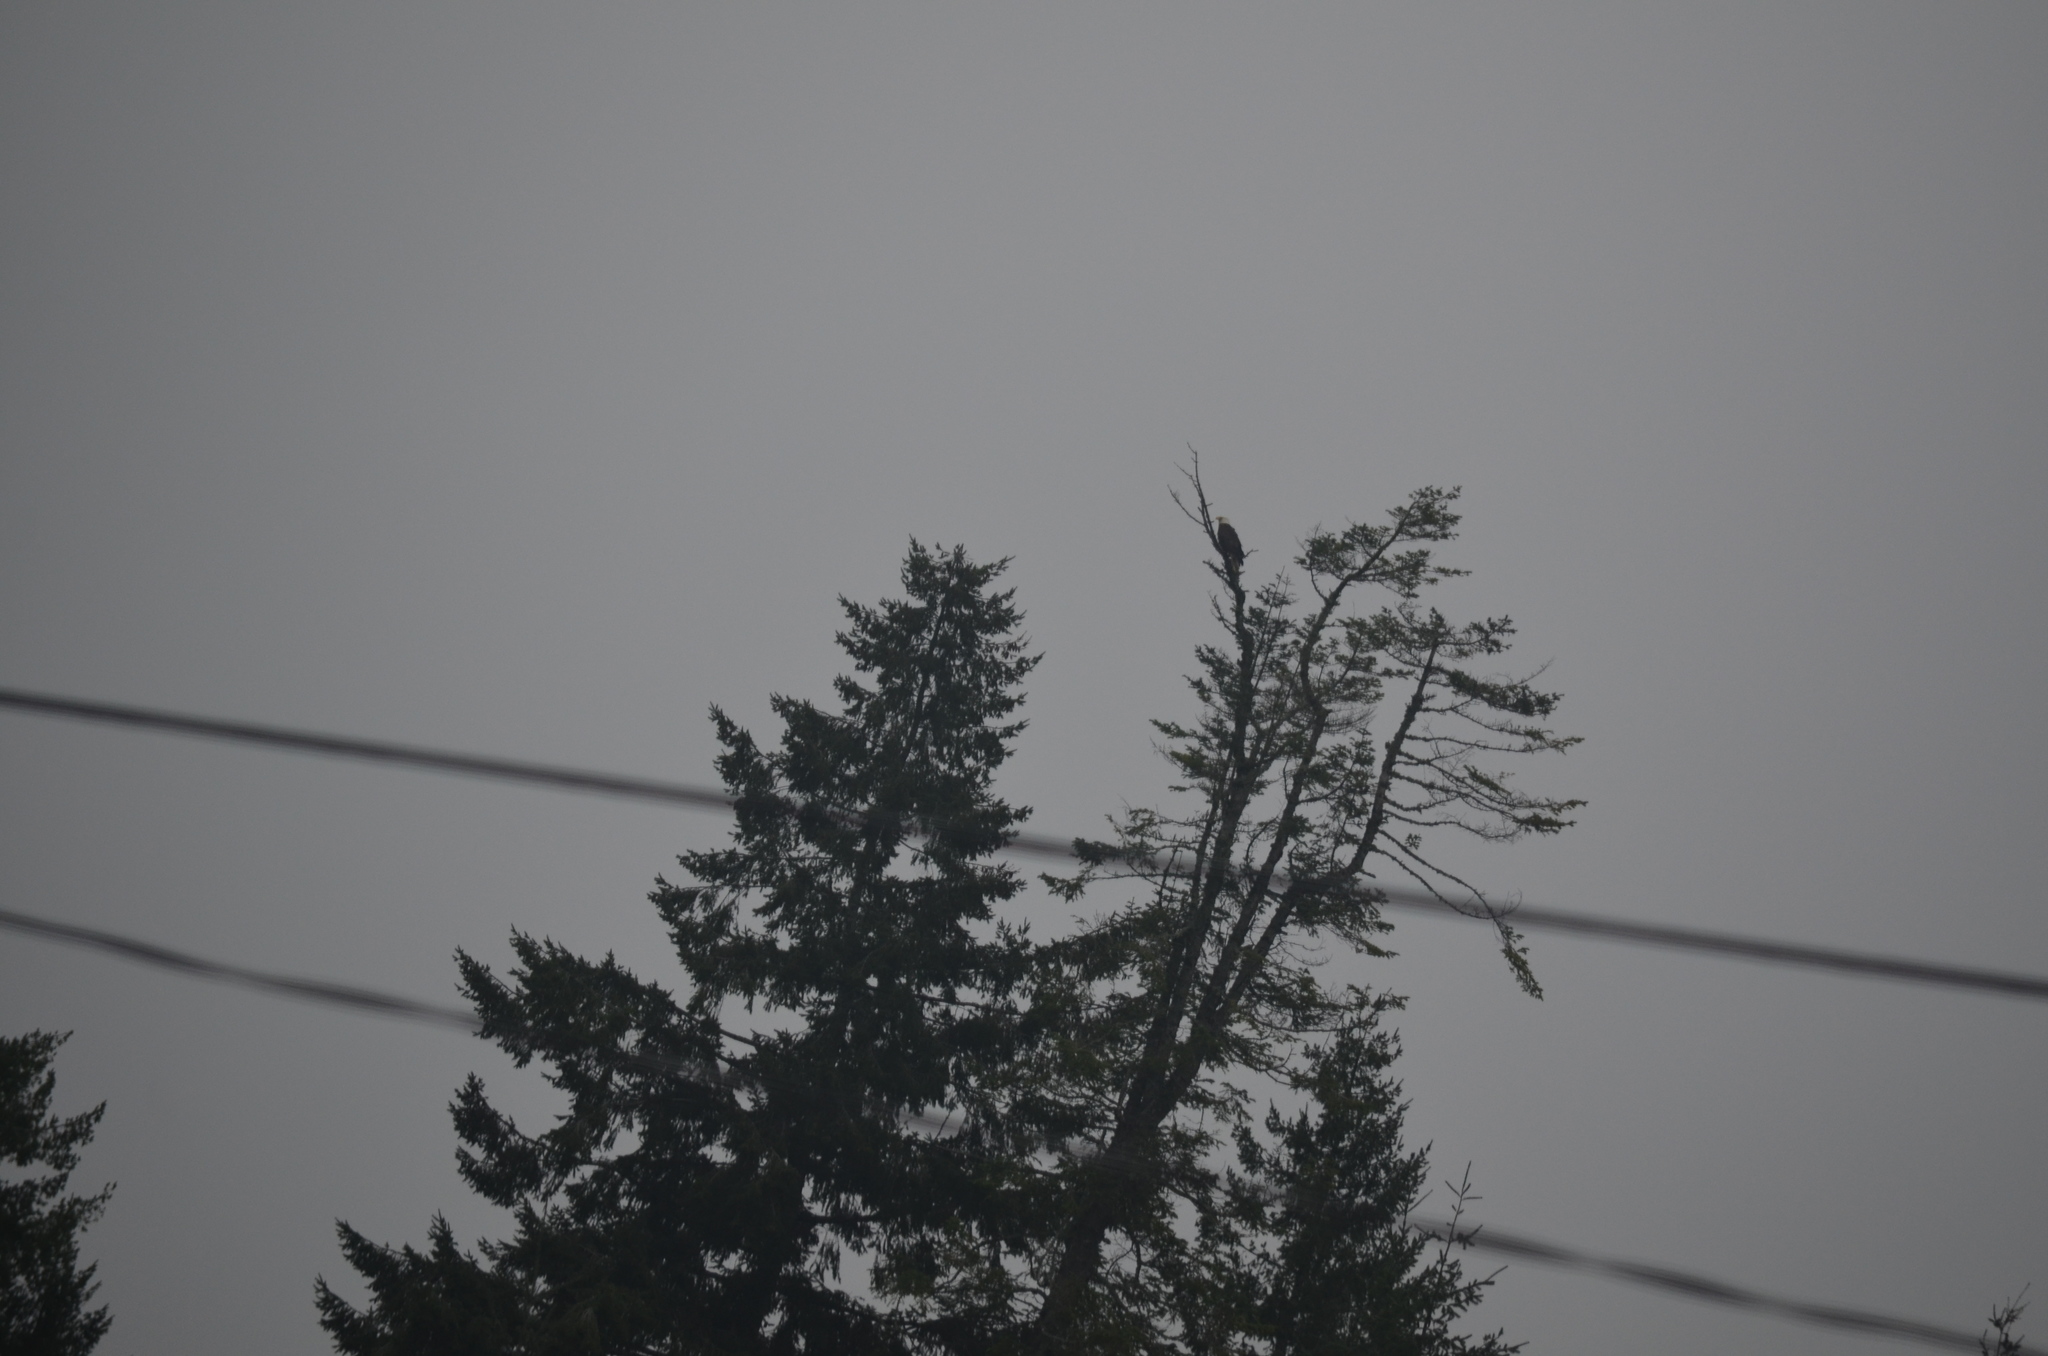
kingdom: Animalia
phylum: Chordata
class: Aves
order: Accipitriformes
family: Accipitridae
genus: Haliaeetus
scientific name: Haliaeetus leucocephalus
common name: Bald eagle
